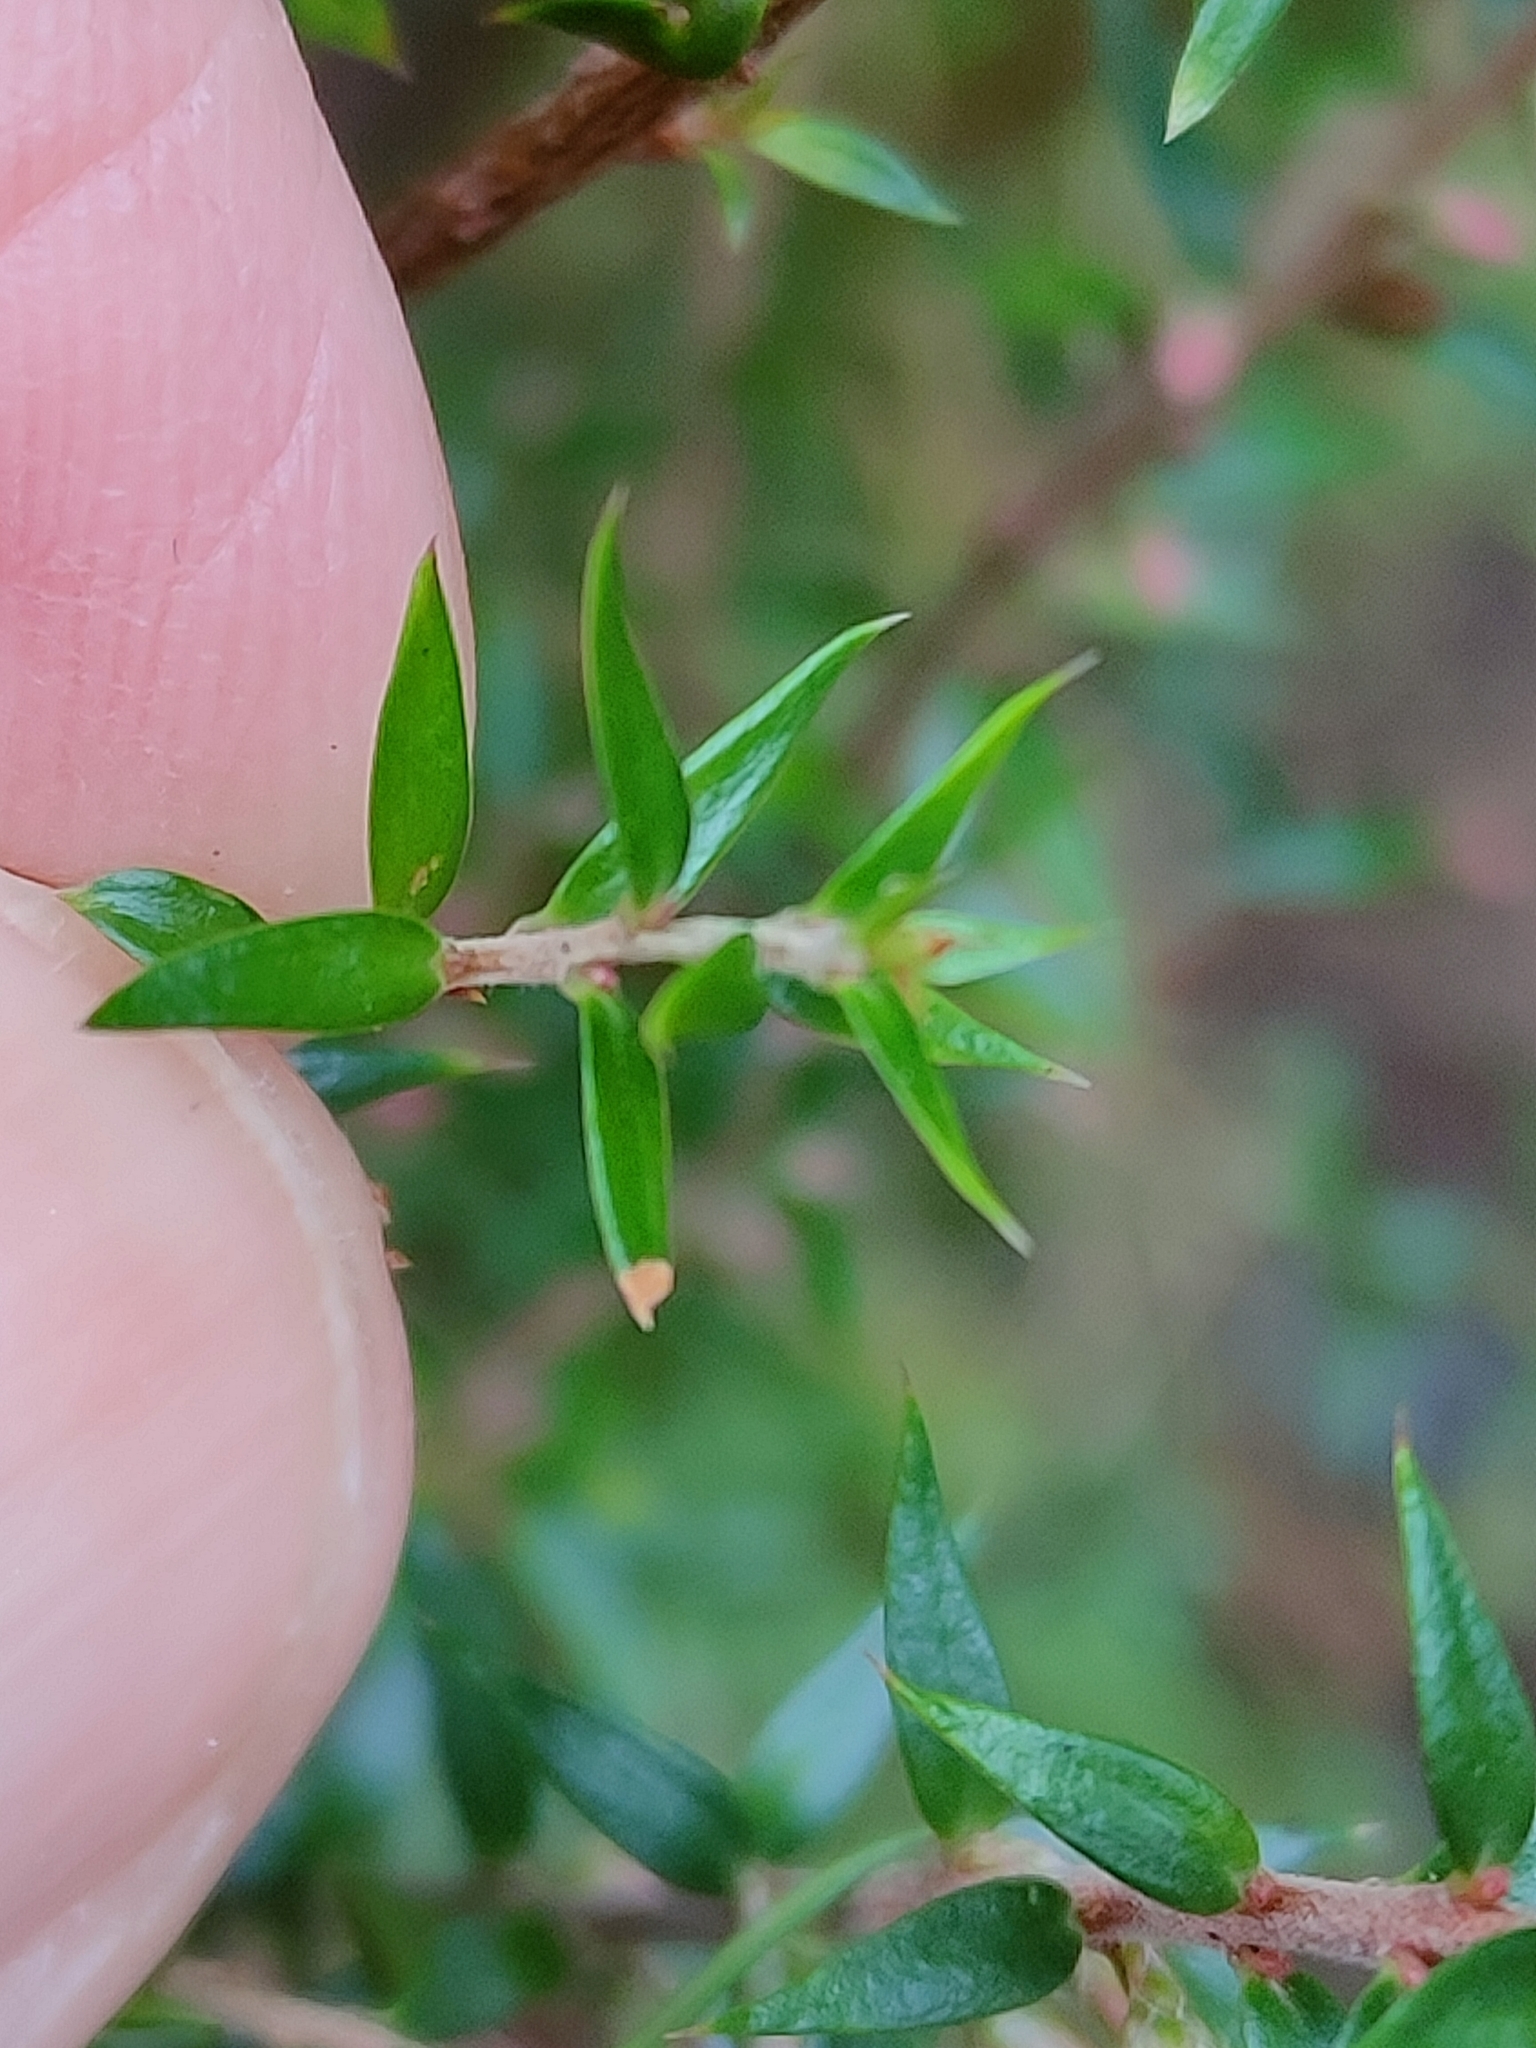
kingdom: Plantae
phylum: Tracheophyta
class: Magnoliopsida
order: Ericales
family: Ericaceae
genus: Epacris
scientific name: Epacris impressa
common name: Common-heath
